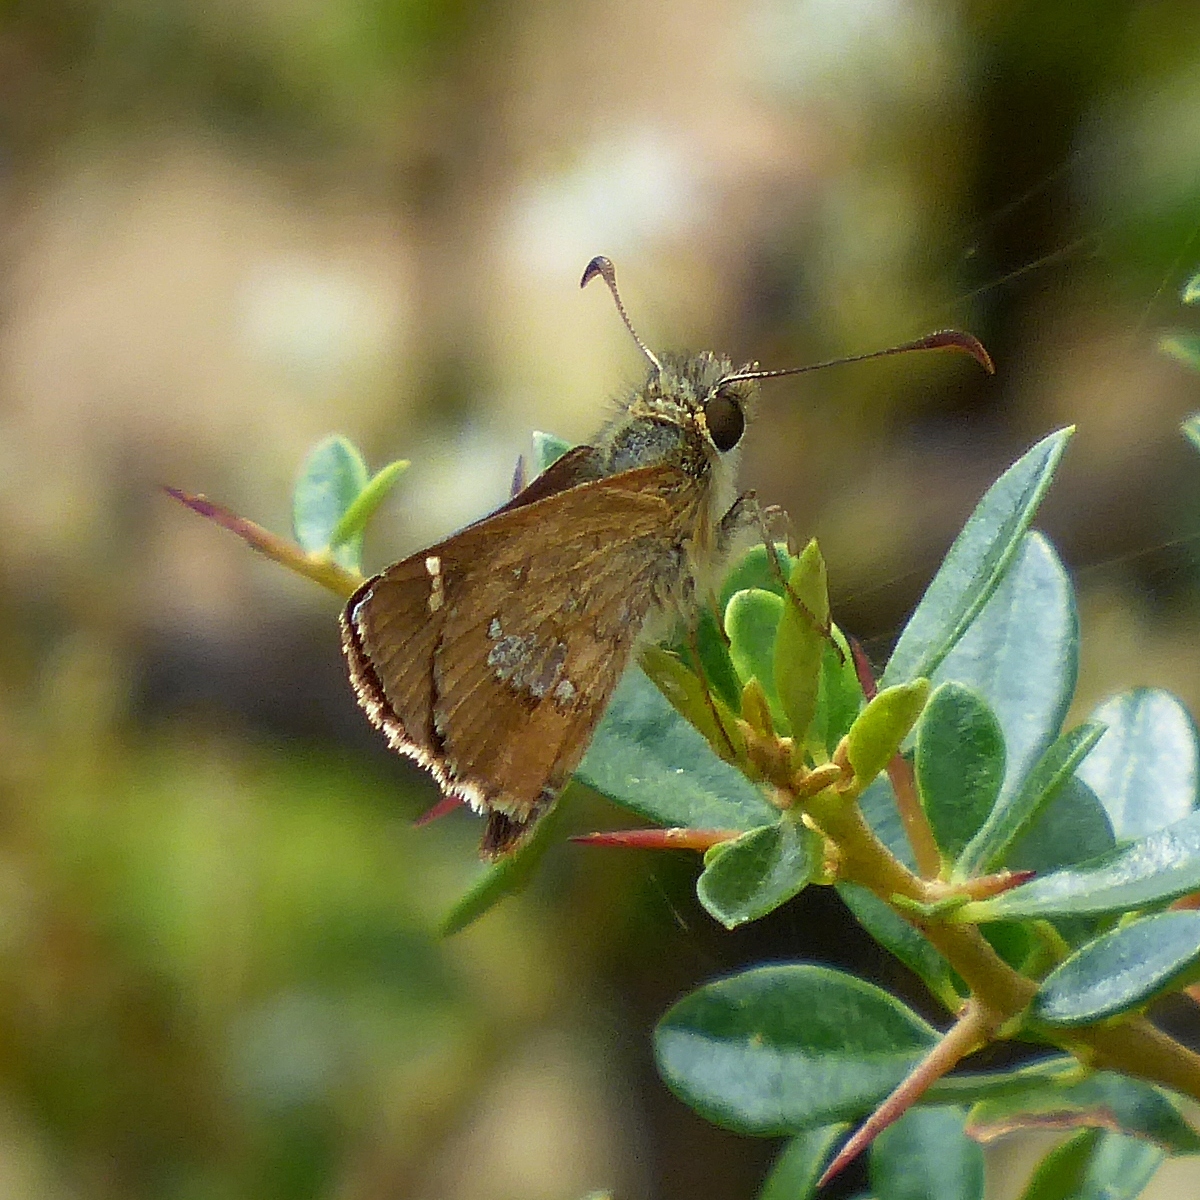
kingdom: Animalia
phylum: Arthropoda
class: Insecta
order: Lepidoptera
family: Hesperiidae
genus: Dispar
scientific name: Dispar compacta
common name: Barred skipper
